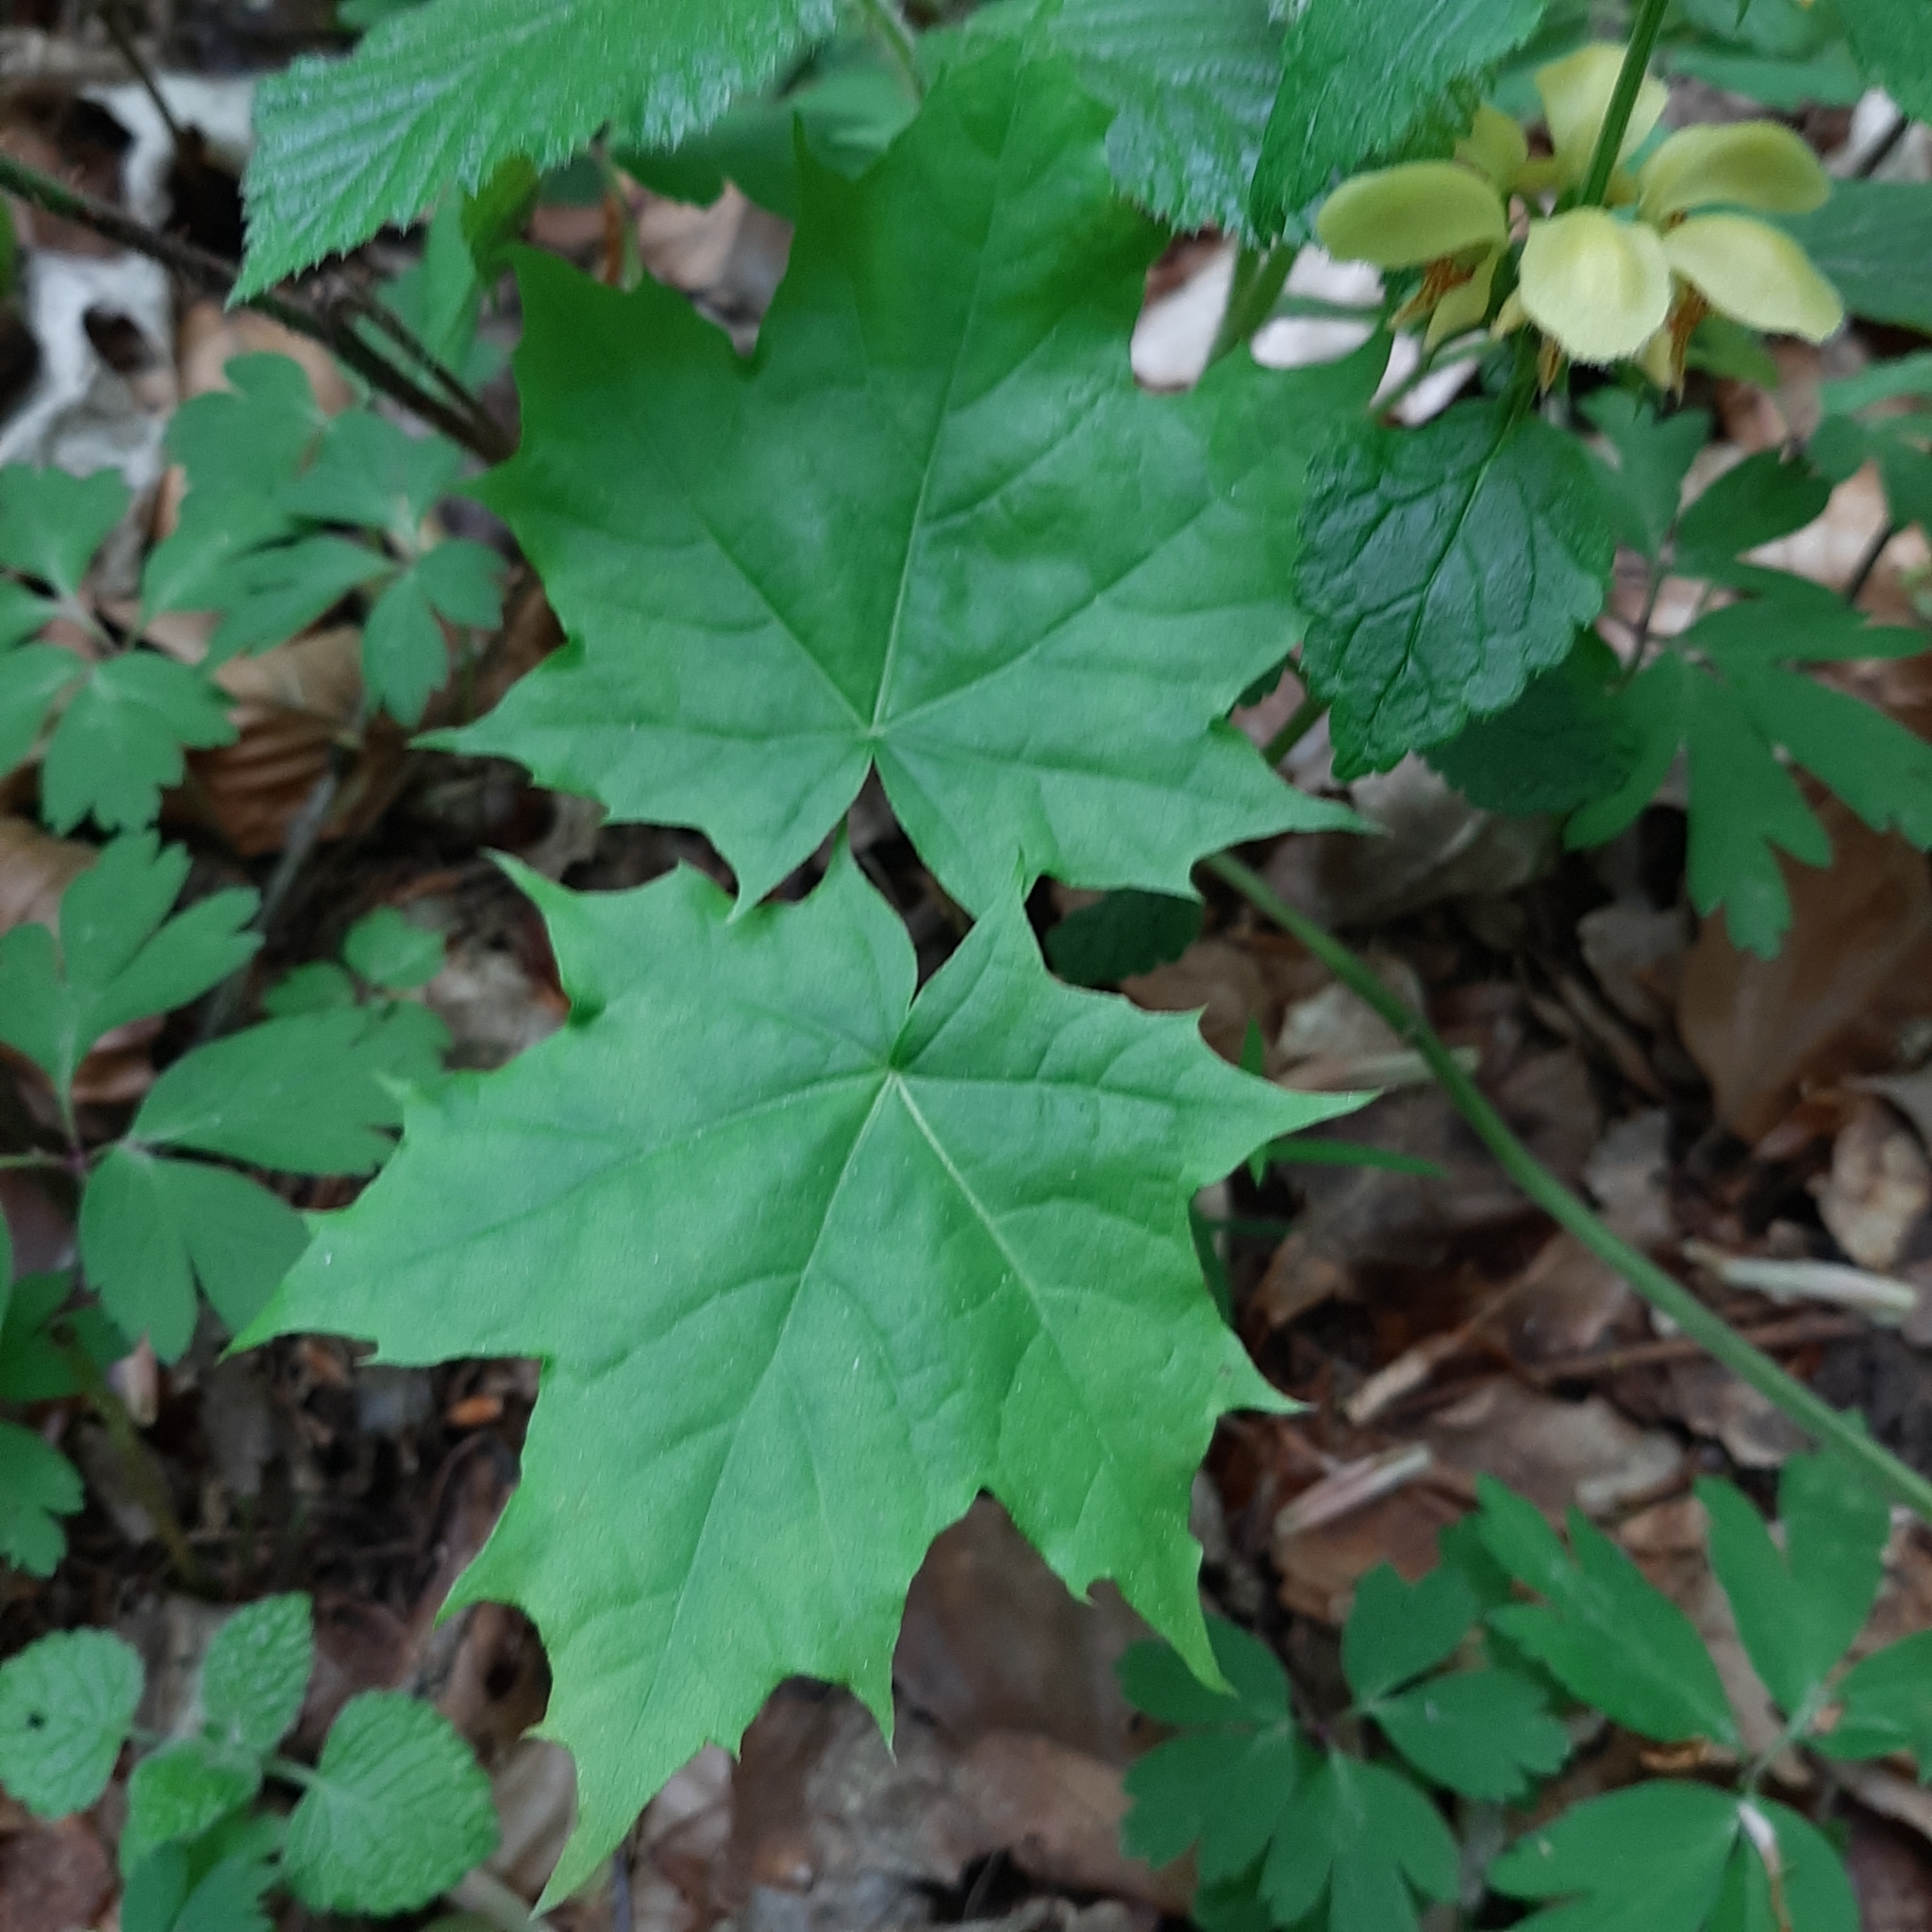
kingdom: Plantae
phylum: Tracheophyta
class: Magnoliopsida
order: Sapindales
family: Sapindaceae
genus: Acer
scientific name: Acer platanoides
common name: Norway maple
